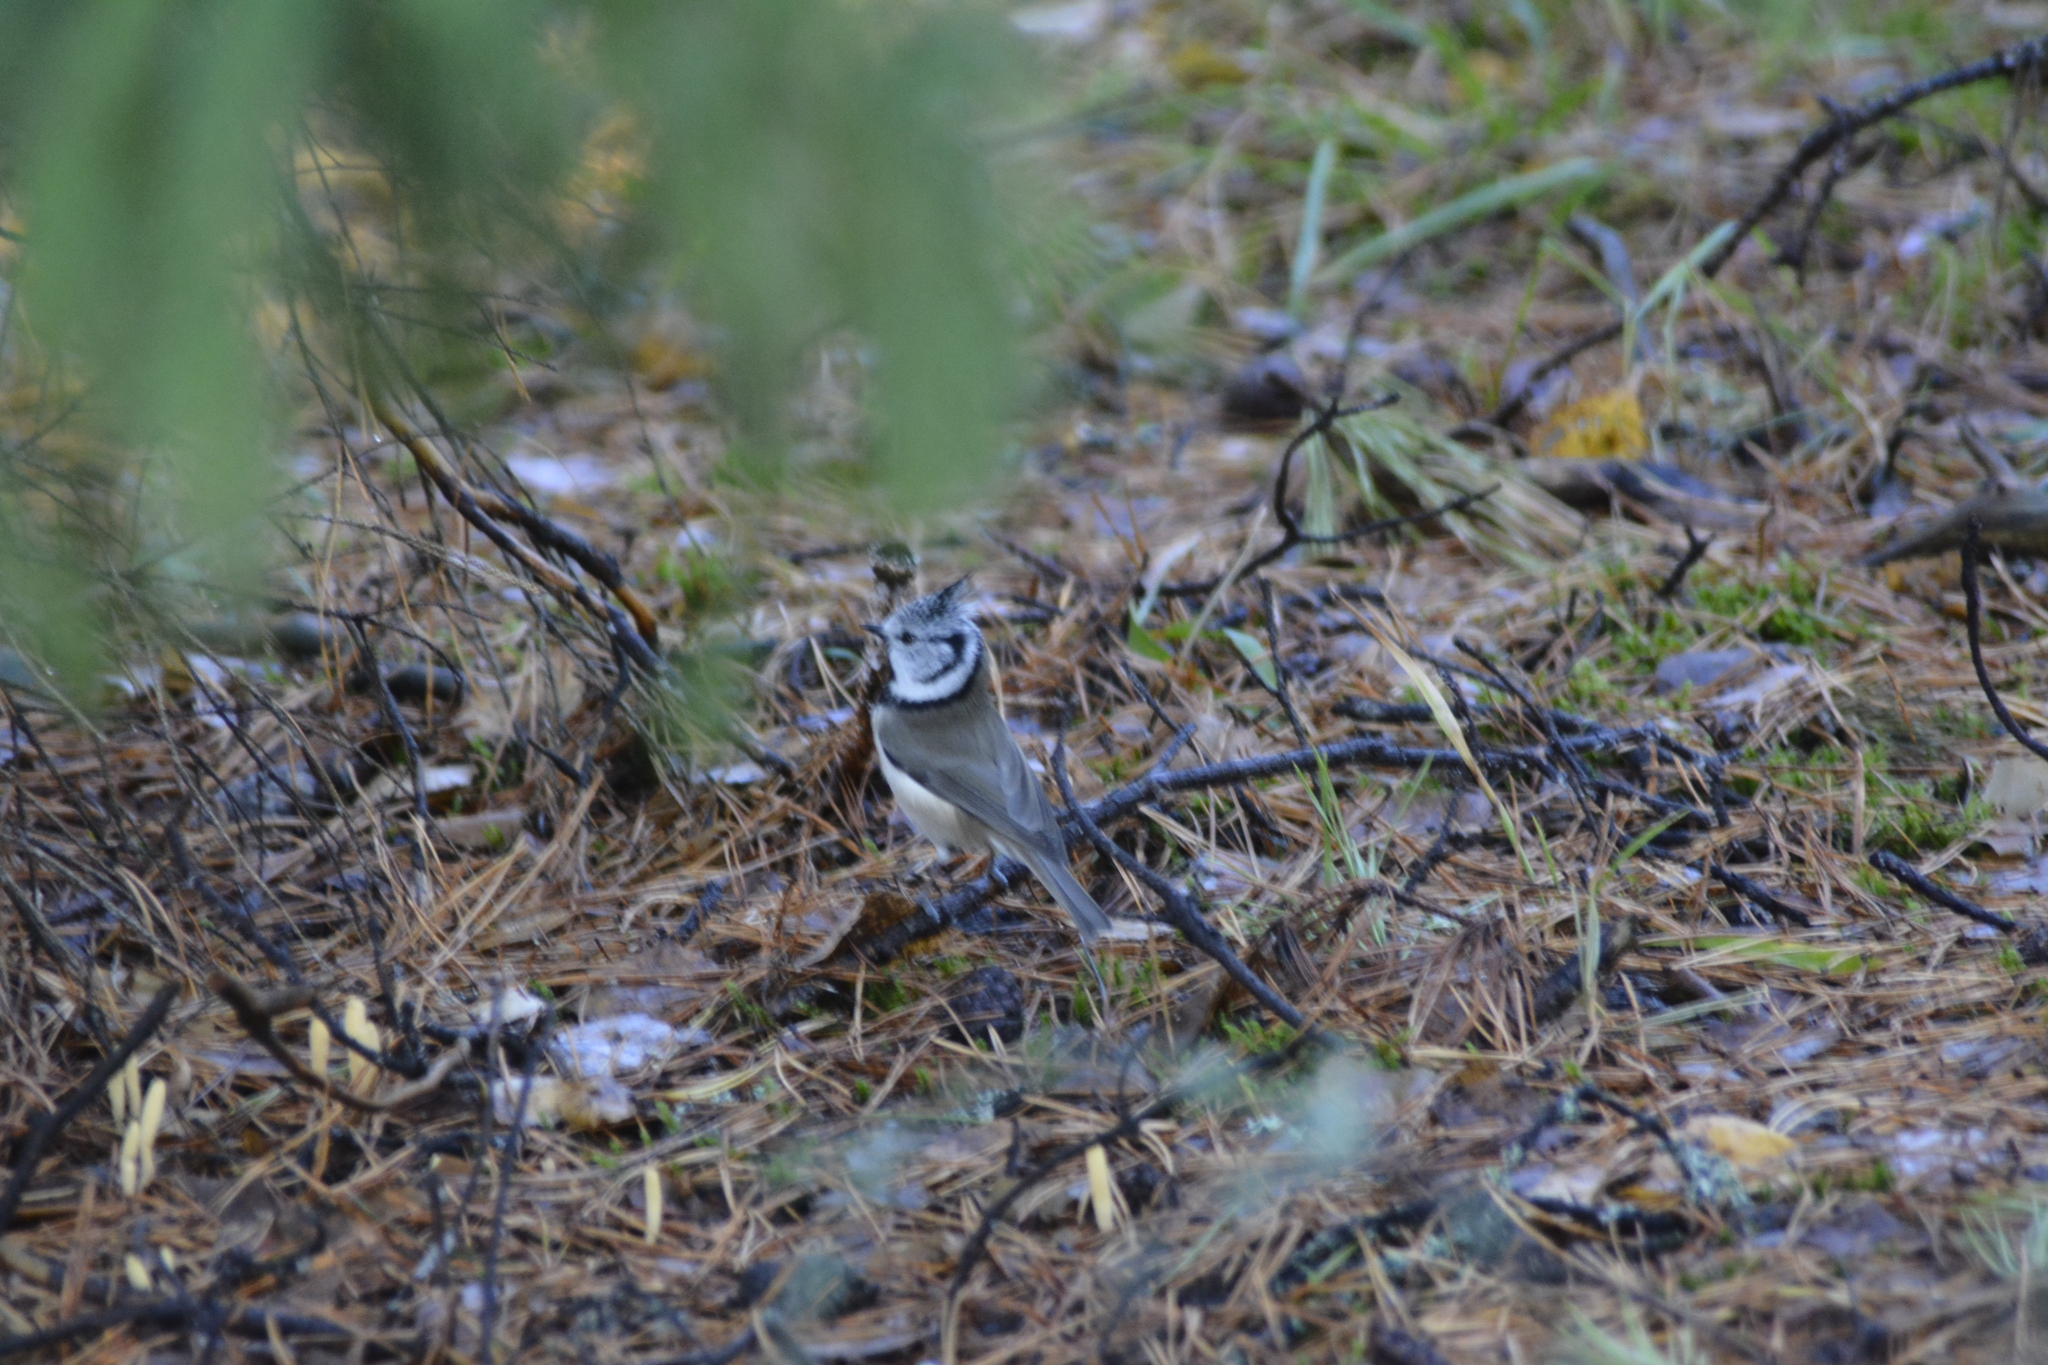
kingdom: Animalia
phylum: Chordata
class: Aves
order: Passeriformes
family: Paridae
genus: Lophophanes
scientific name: Lophophanes cristatus
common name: European crested tit
